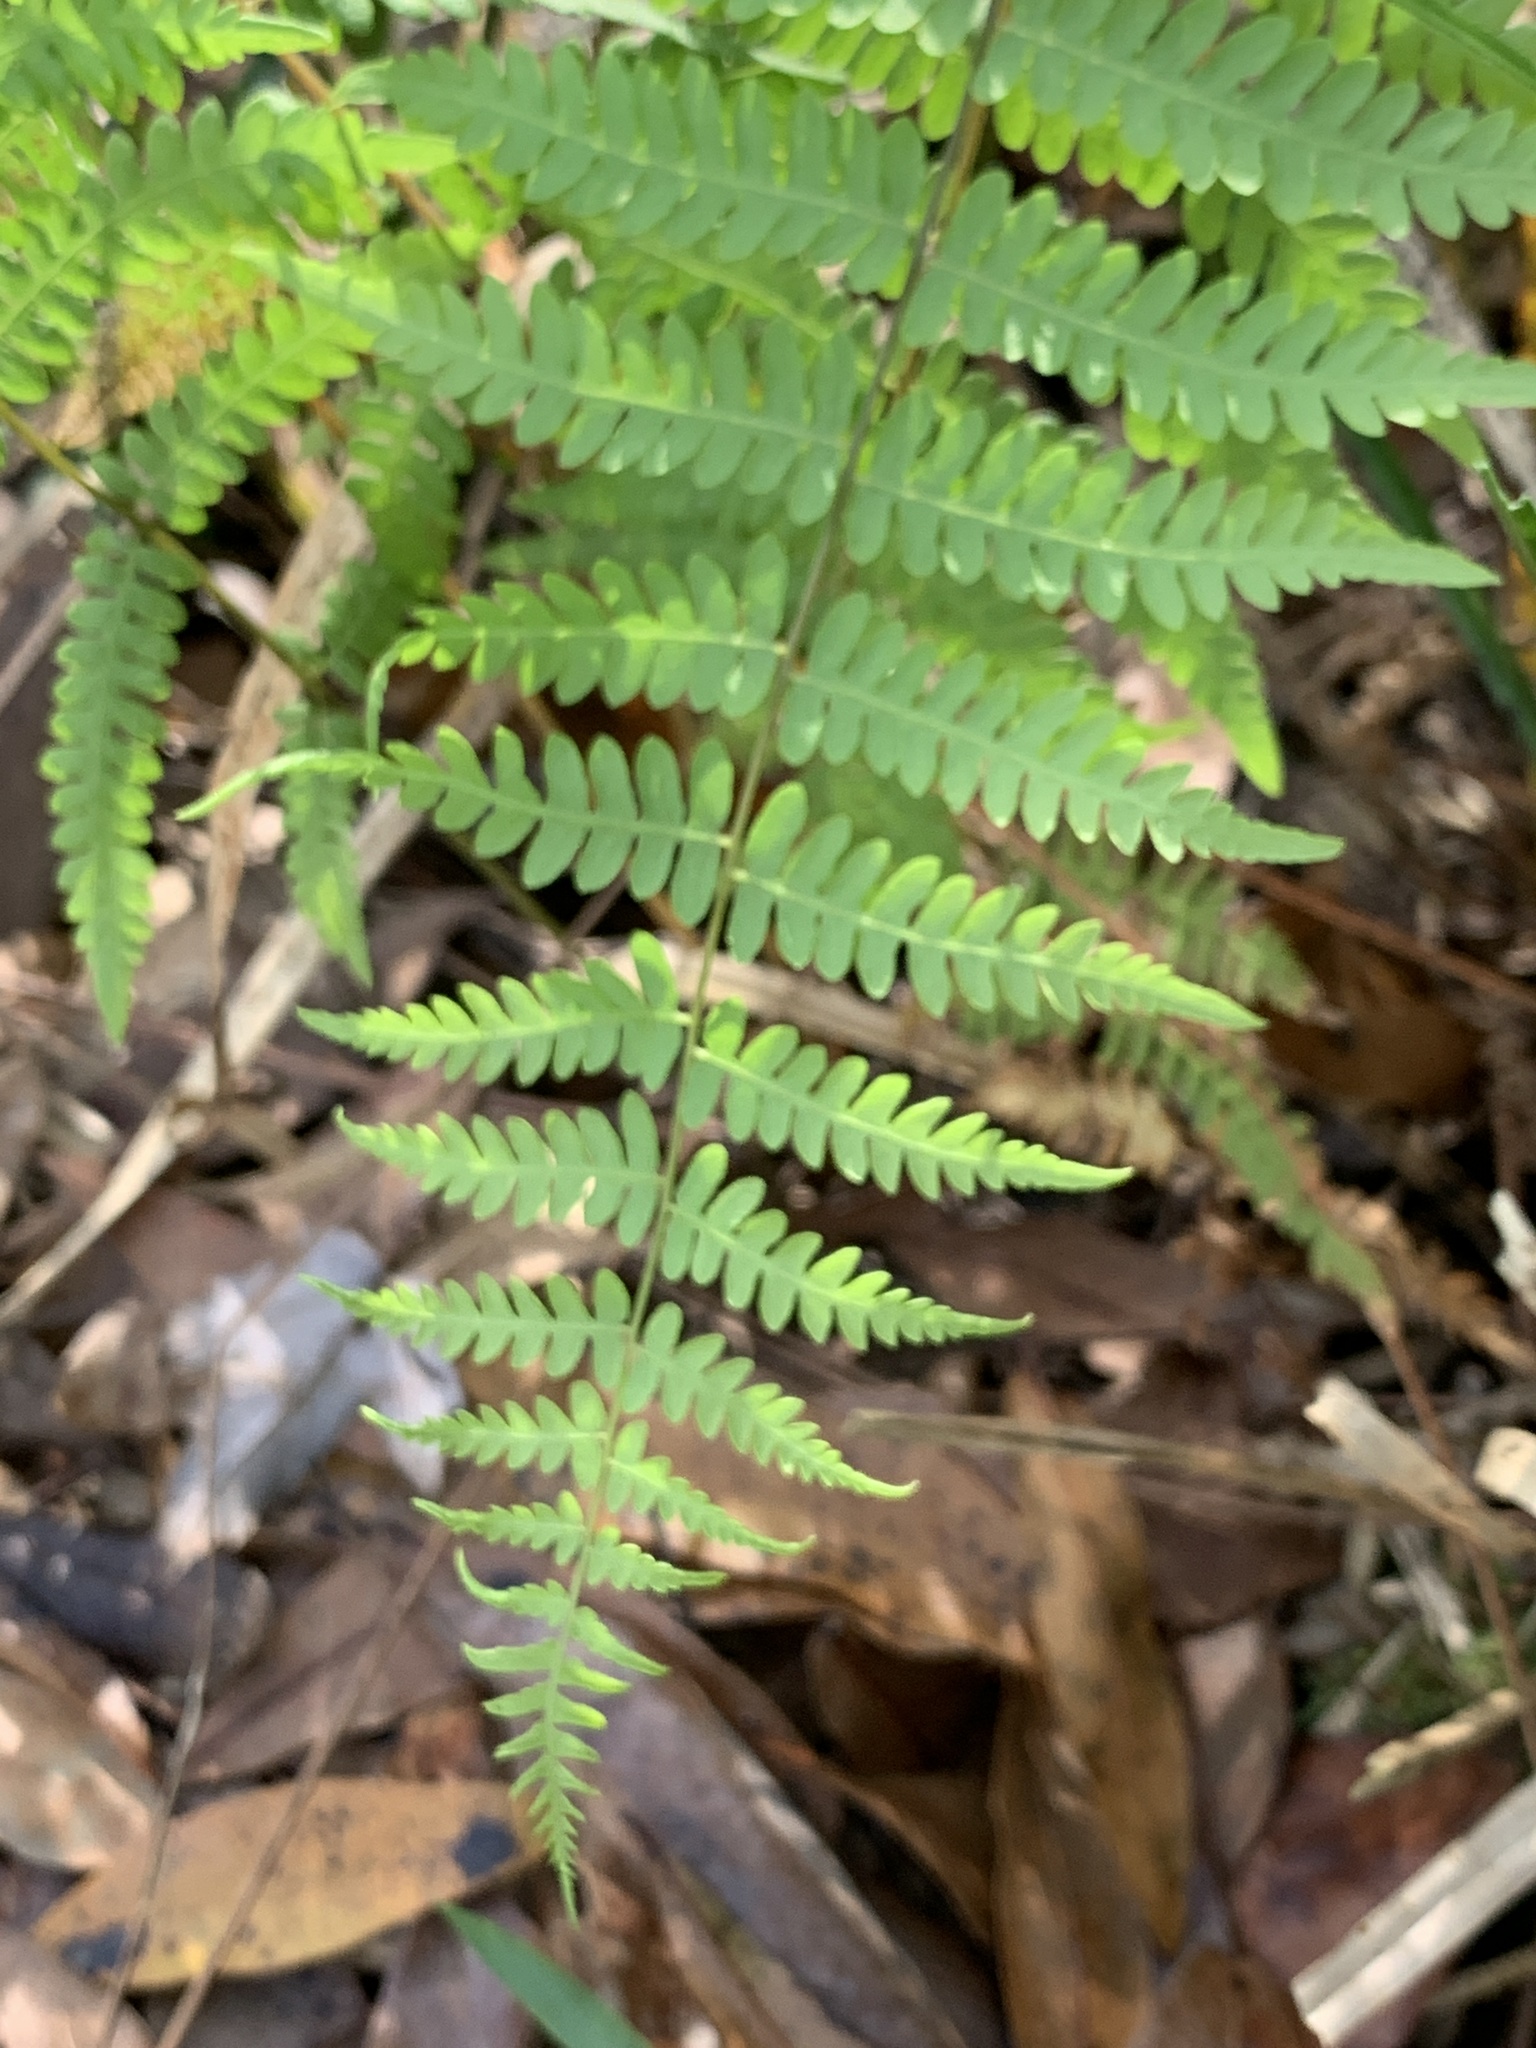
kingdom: Plantae
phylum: Tracheophyta
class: Polypodiopsida
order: Polypodiales
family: Thelypteridaceae
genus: Thelypteris
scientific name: Thelypteris palustris
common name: Marsh fern
